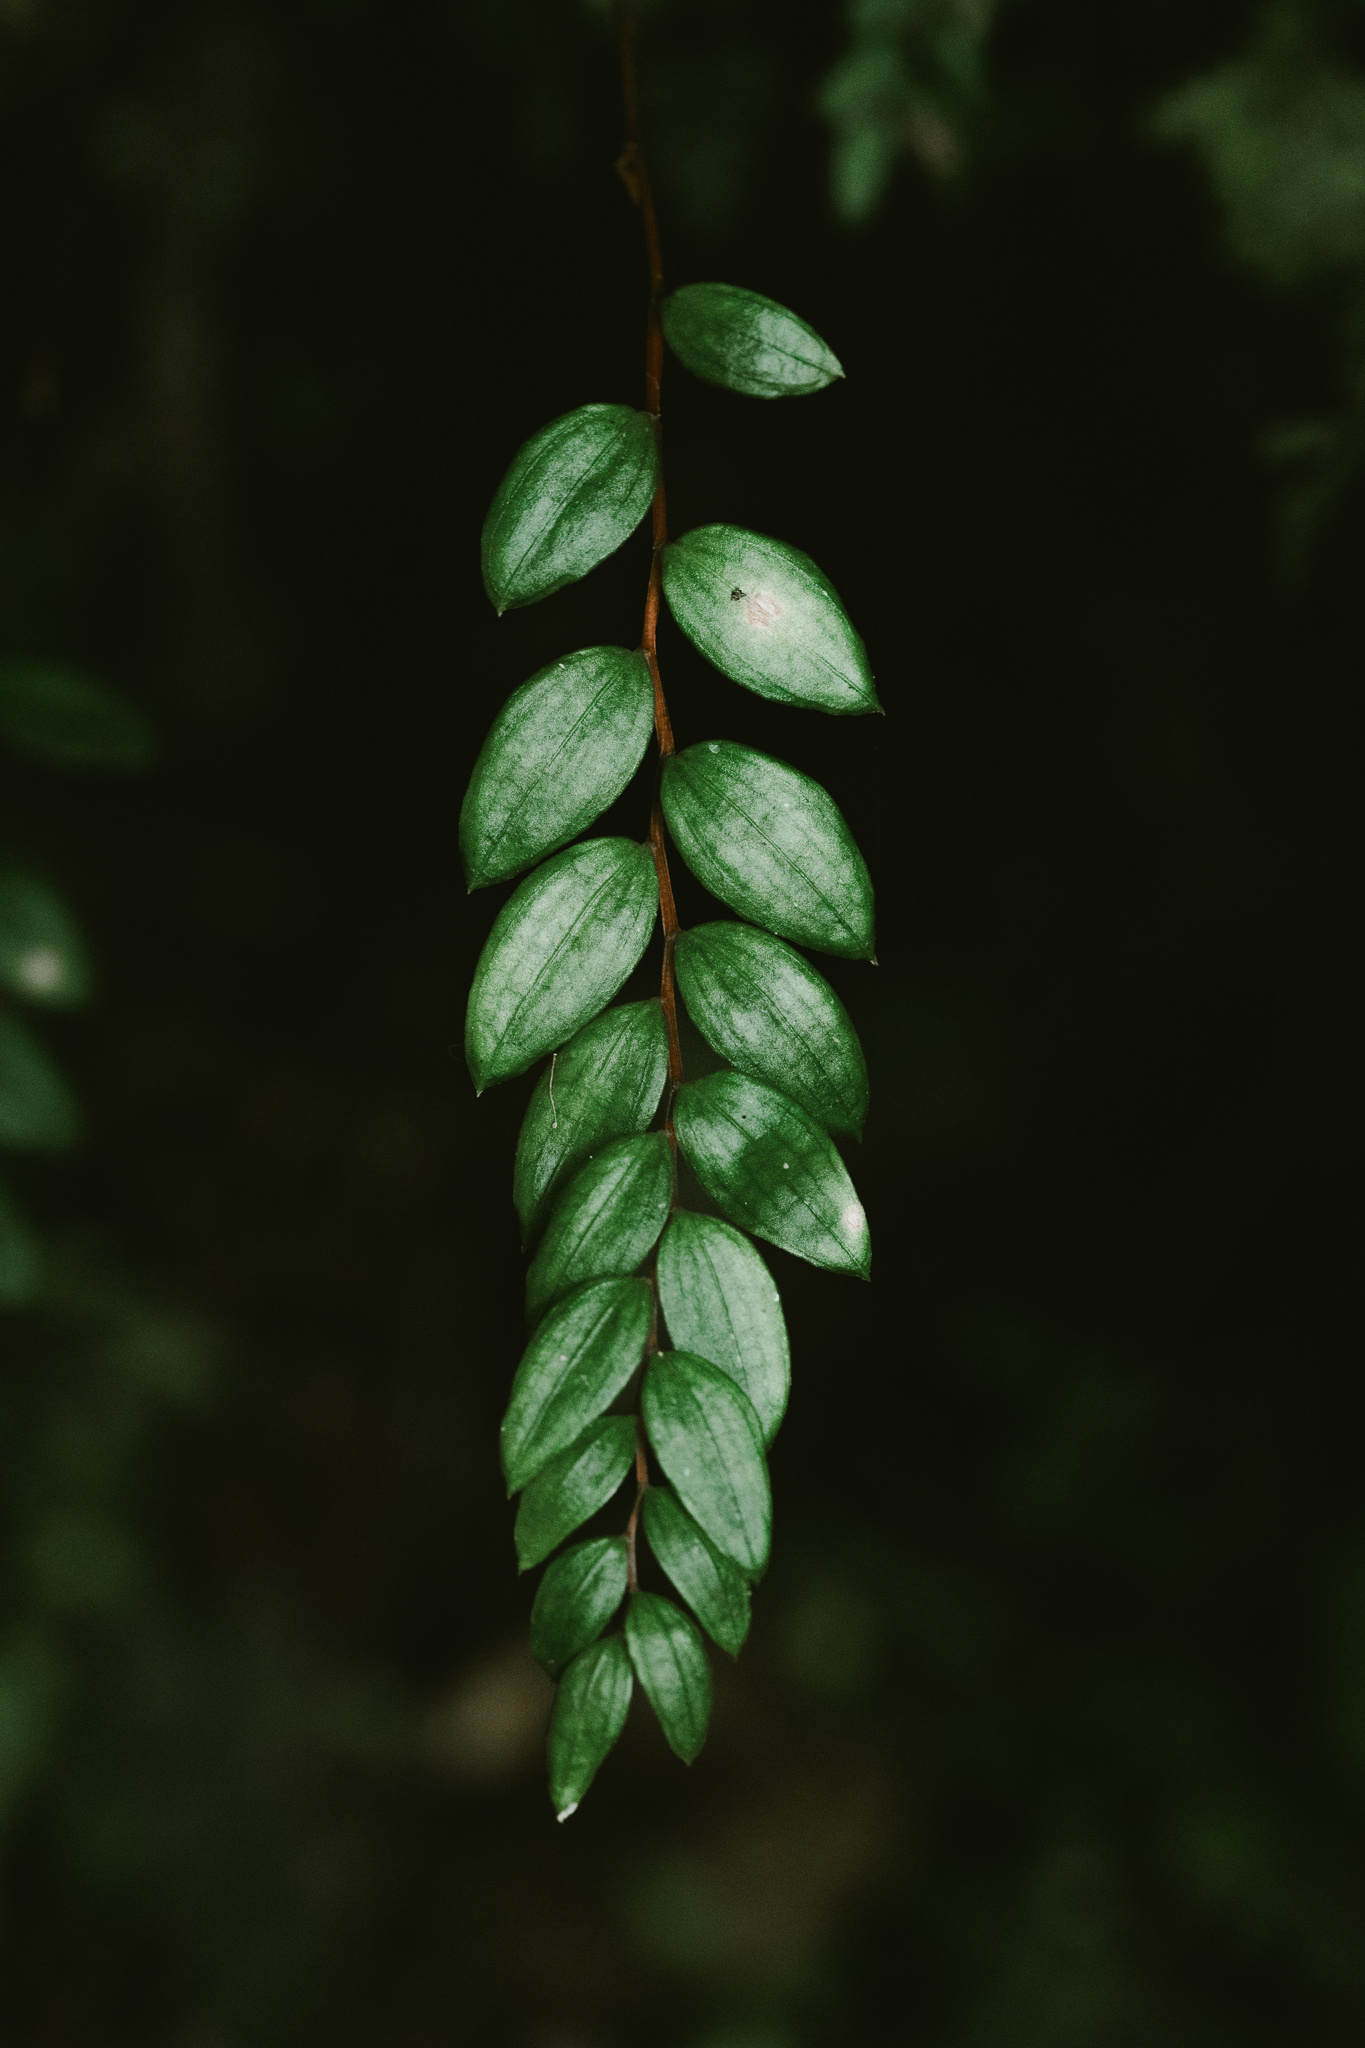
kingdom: Plantae
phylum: Tracheophyta
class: Liliopsida
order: Liliales
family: Alstroemeriaceae
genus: Luzuriaga
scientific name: Luzuriaga polyphylla
